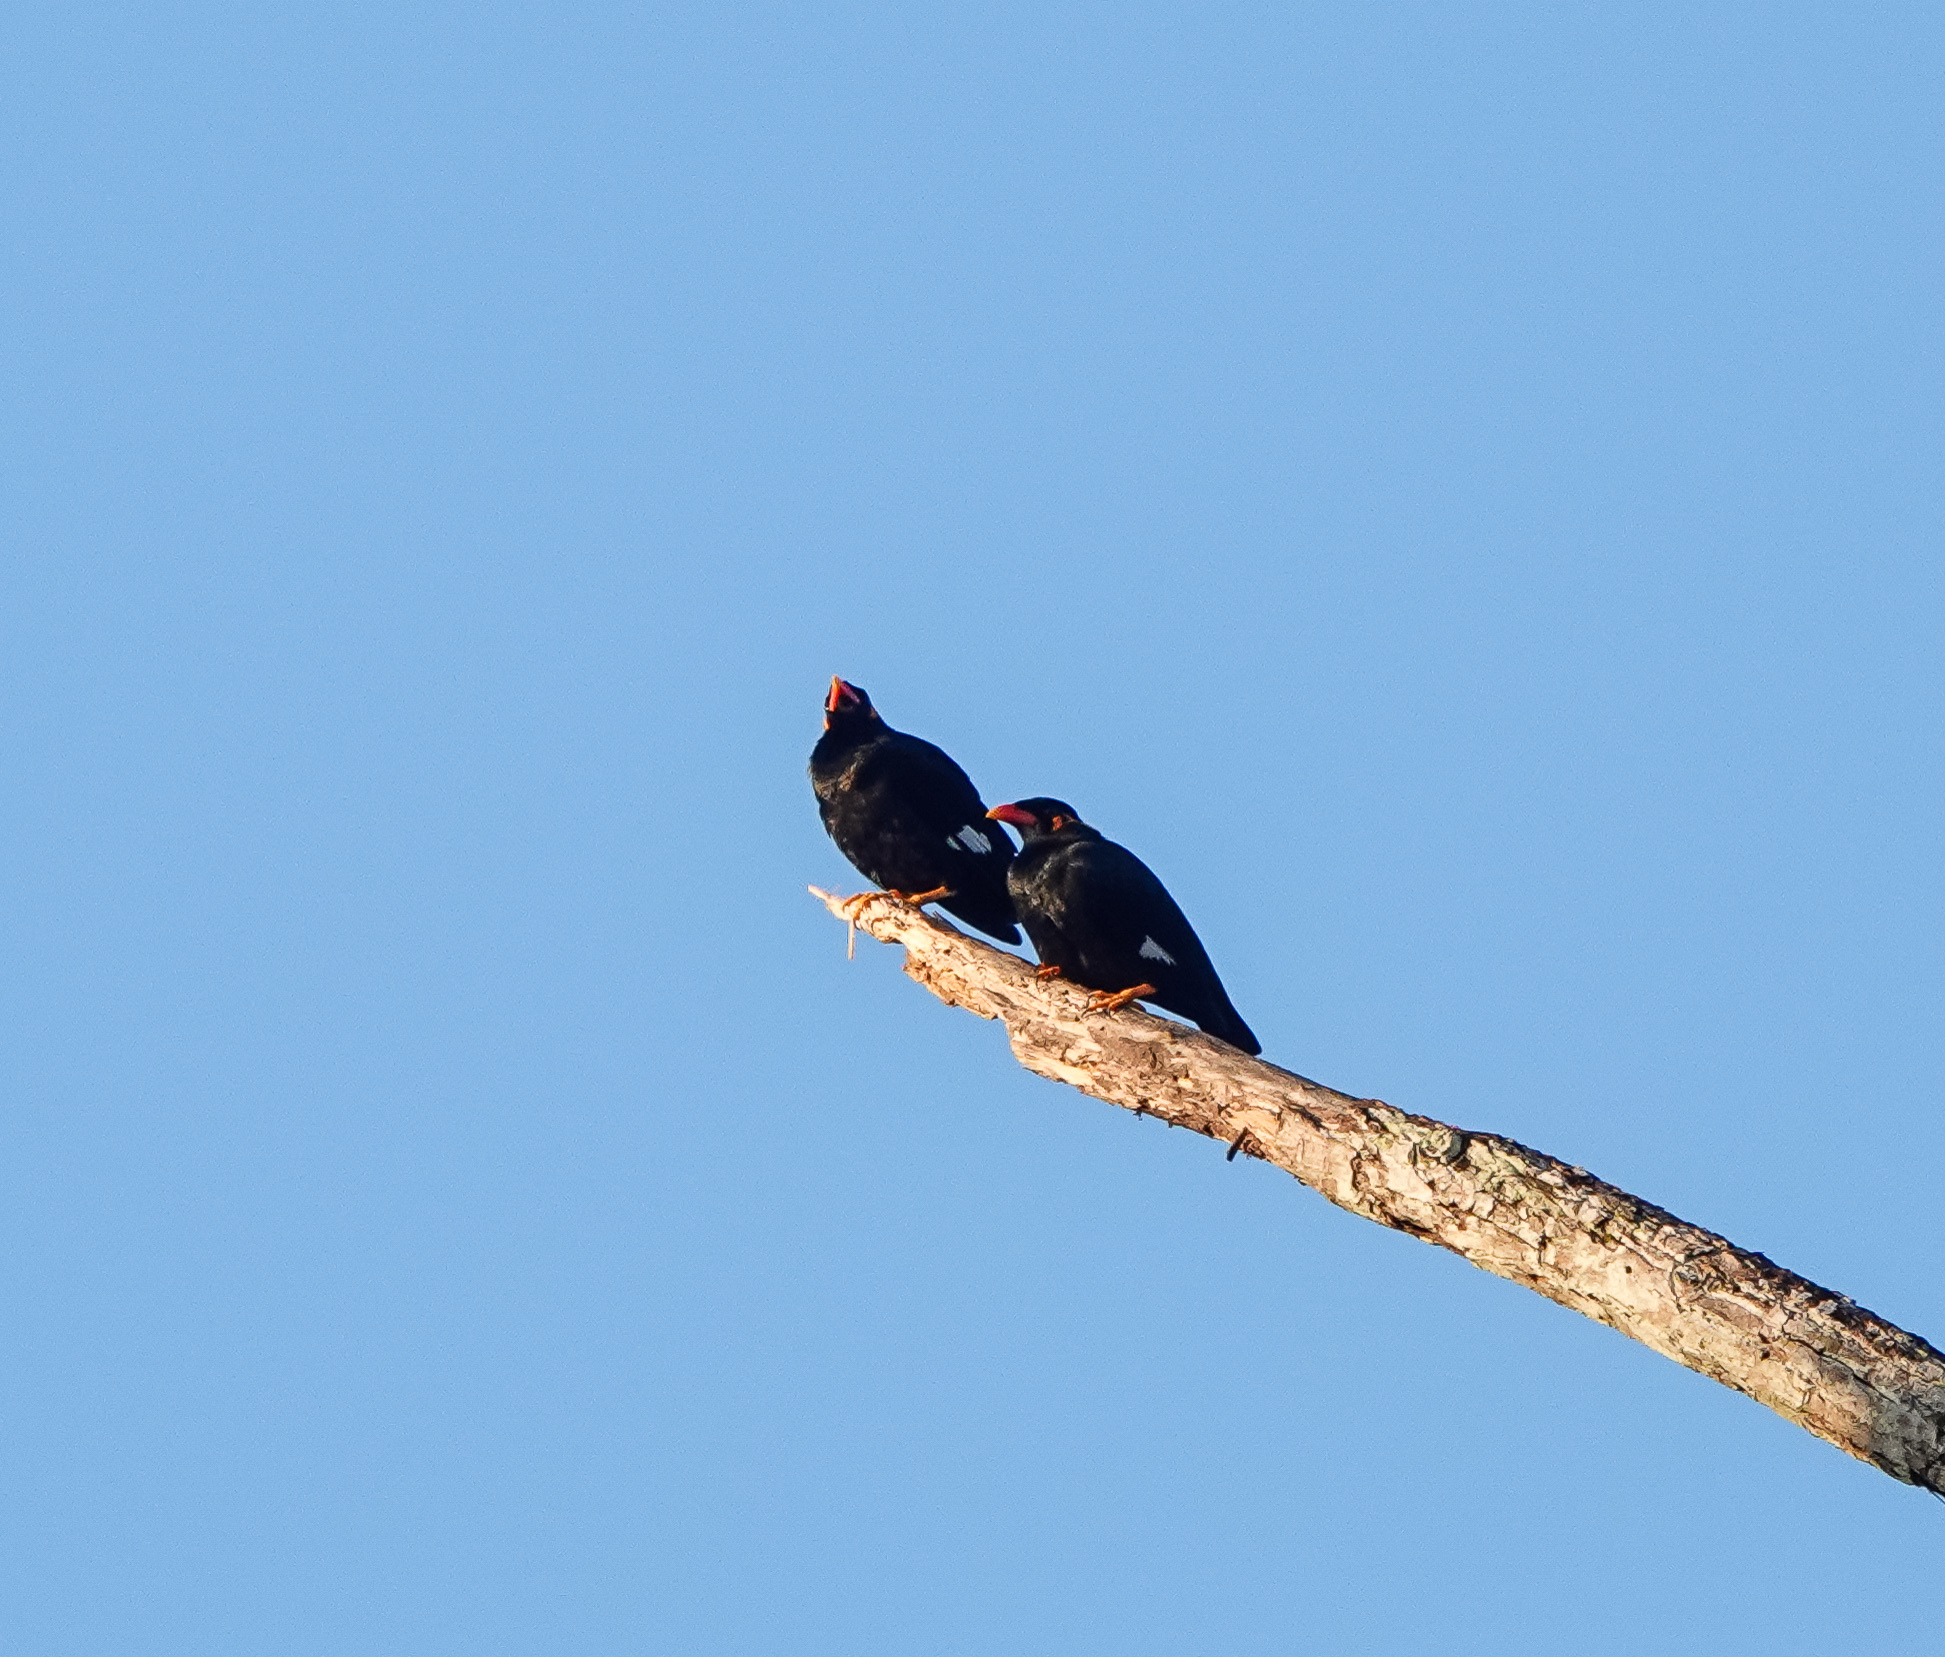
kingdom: Animalia
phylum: Chordata
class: Aves
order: Passeriformes
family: Sturnidae
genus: Gracula
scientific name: Gracula religiosa
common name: Common hill myna
